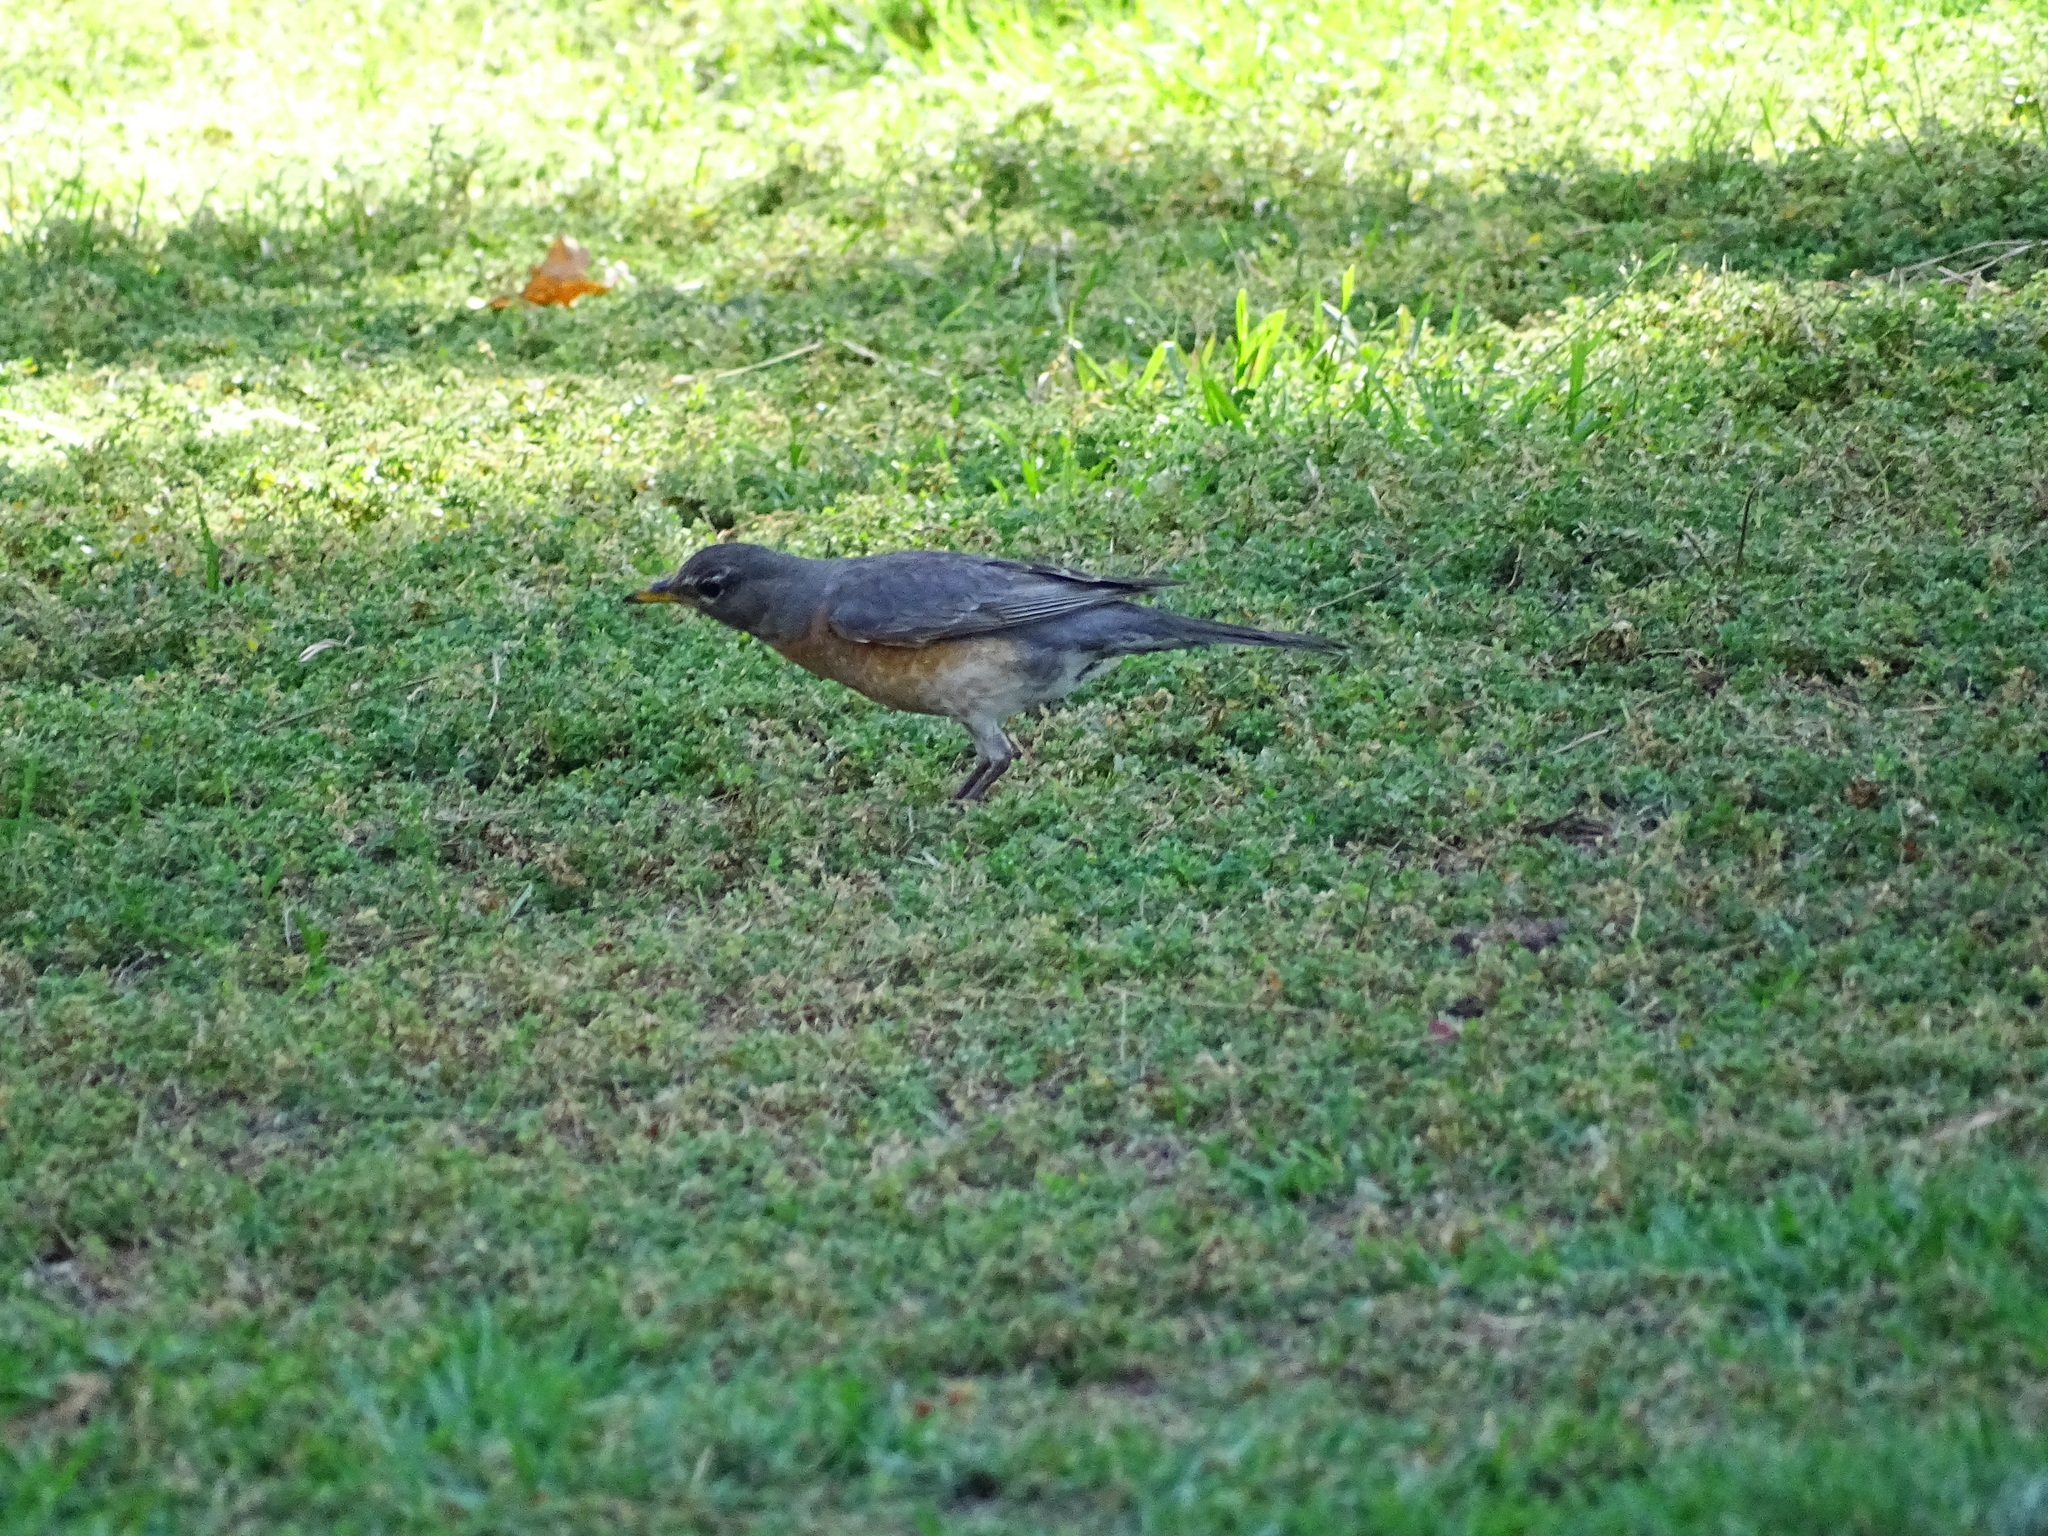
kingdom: Animalia
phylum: Chordata
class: Aves
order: Passeriformes
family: Turdidae
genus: Turdus
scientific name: Turdus migratorius
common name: American robin
